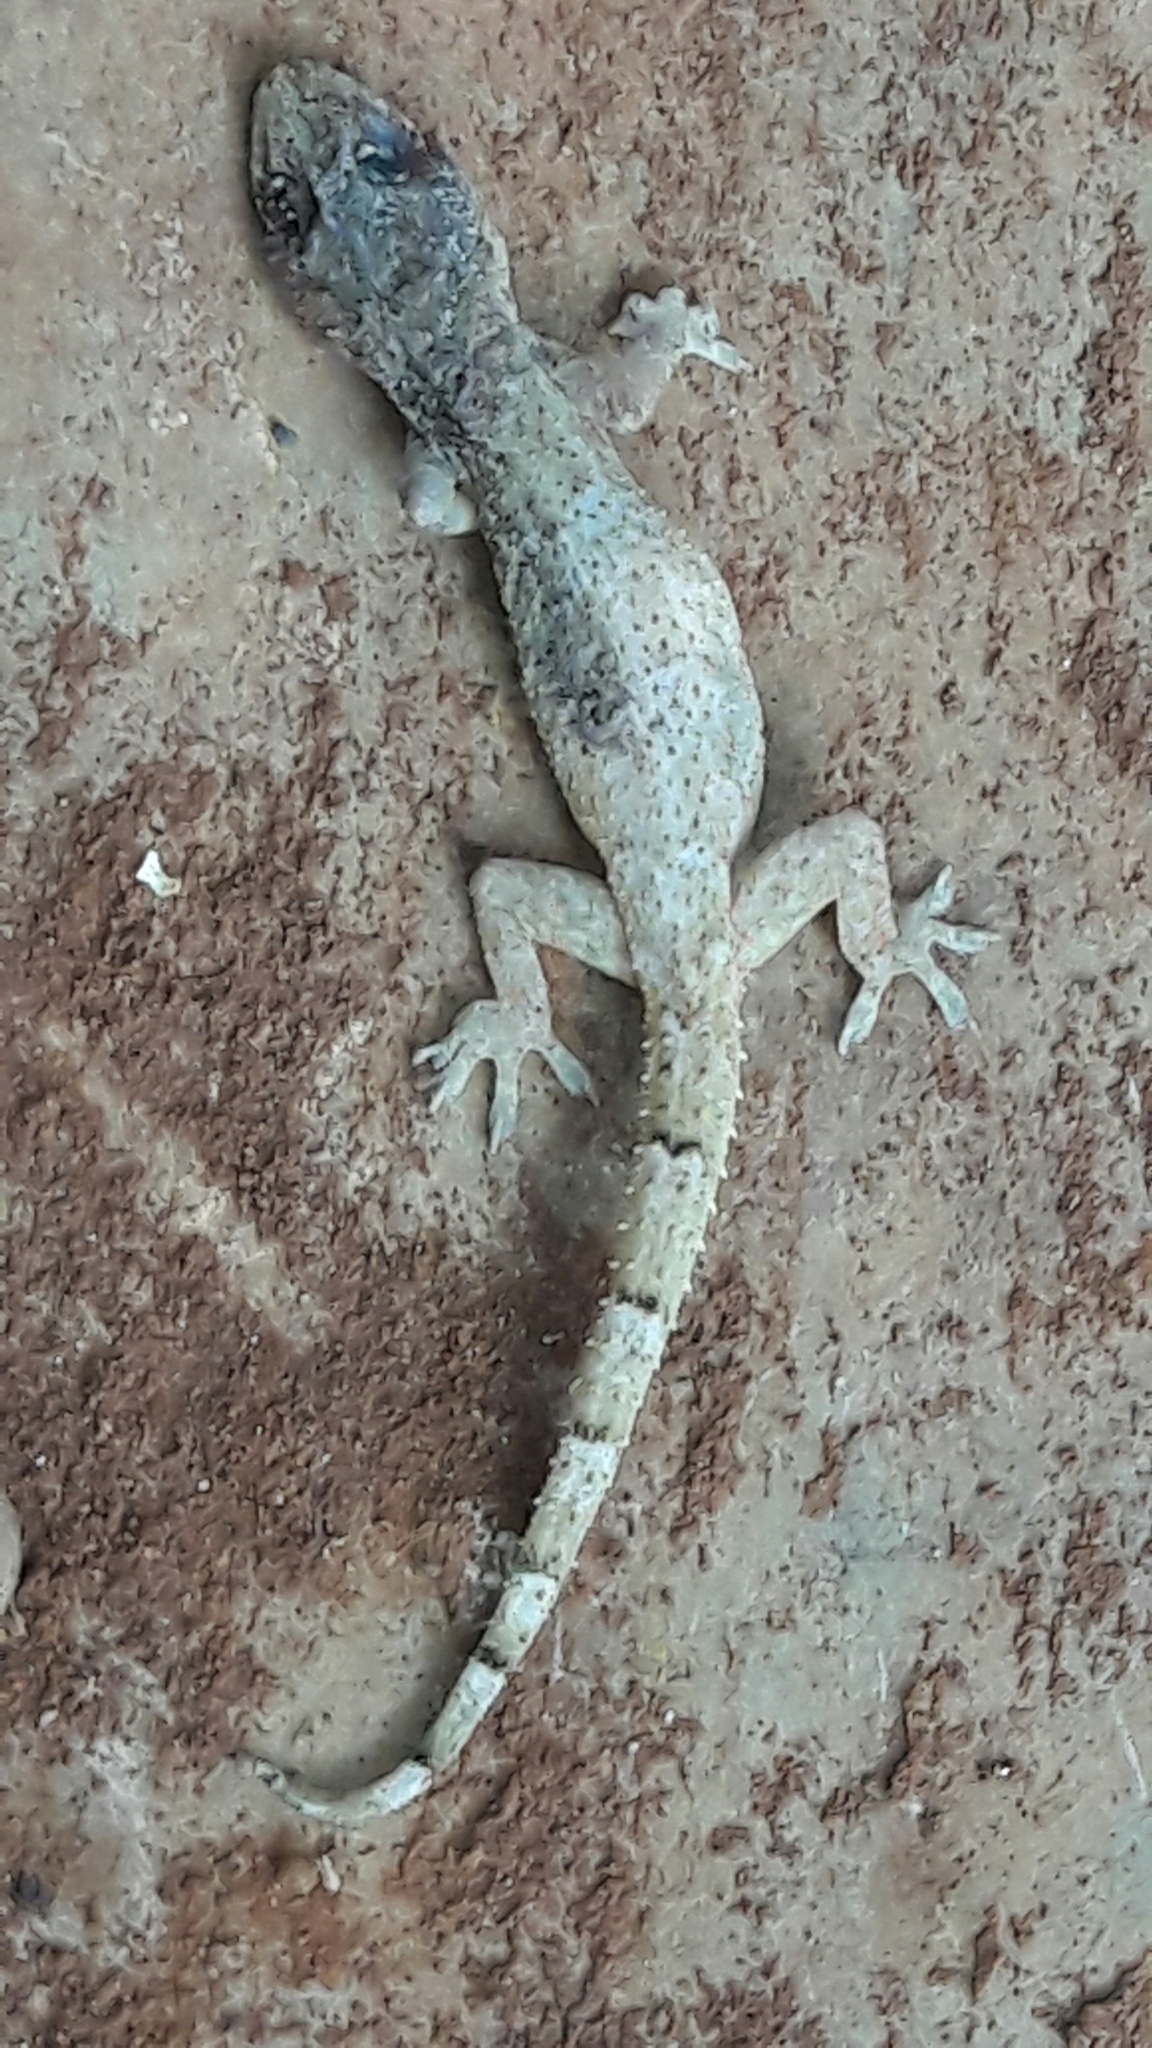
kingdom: Animalia
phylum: Chordata
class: Squamata
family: Gekkonidae
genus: Hemidactylus
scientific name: Hemidactylus mabouia
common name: House gecko
